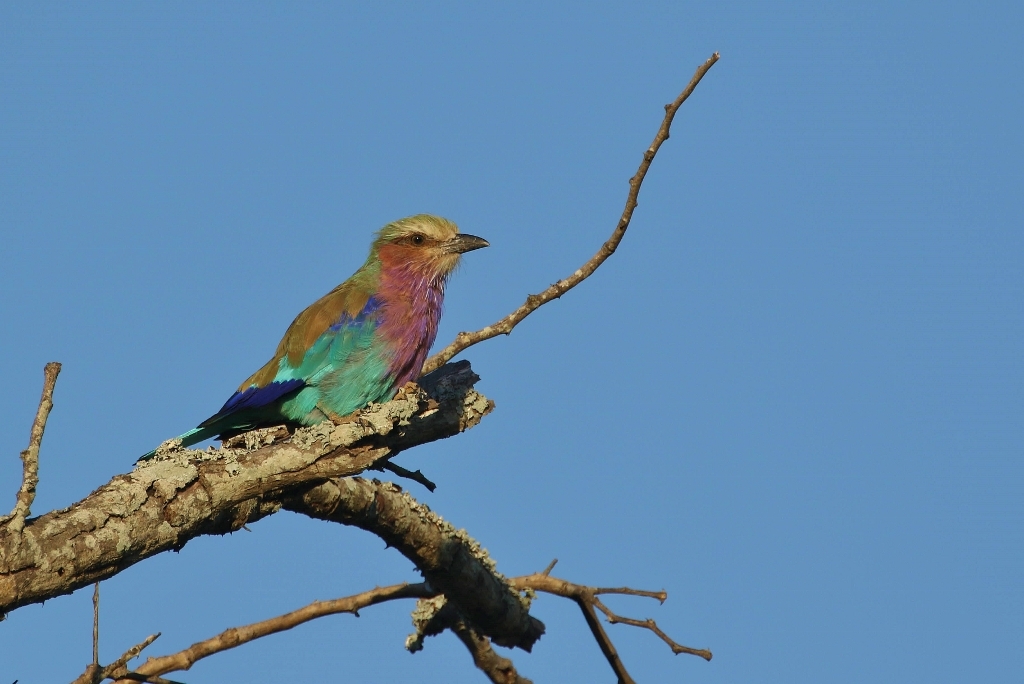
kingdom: Animalia
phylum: Chordata
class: Aves
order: Coraciiformes
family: Coraciidae
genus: Coracias
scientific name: Coracias caudatus
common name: Lilac-breasted roller
